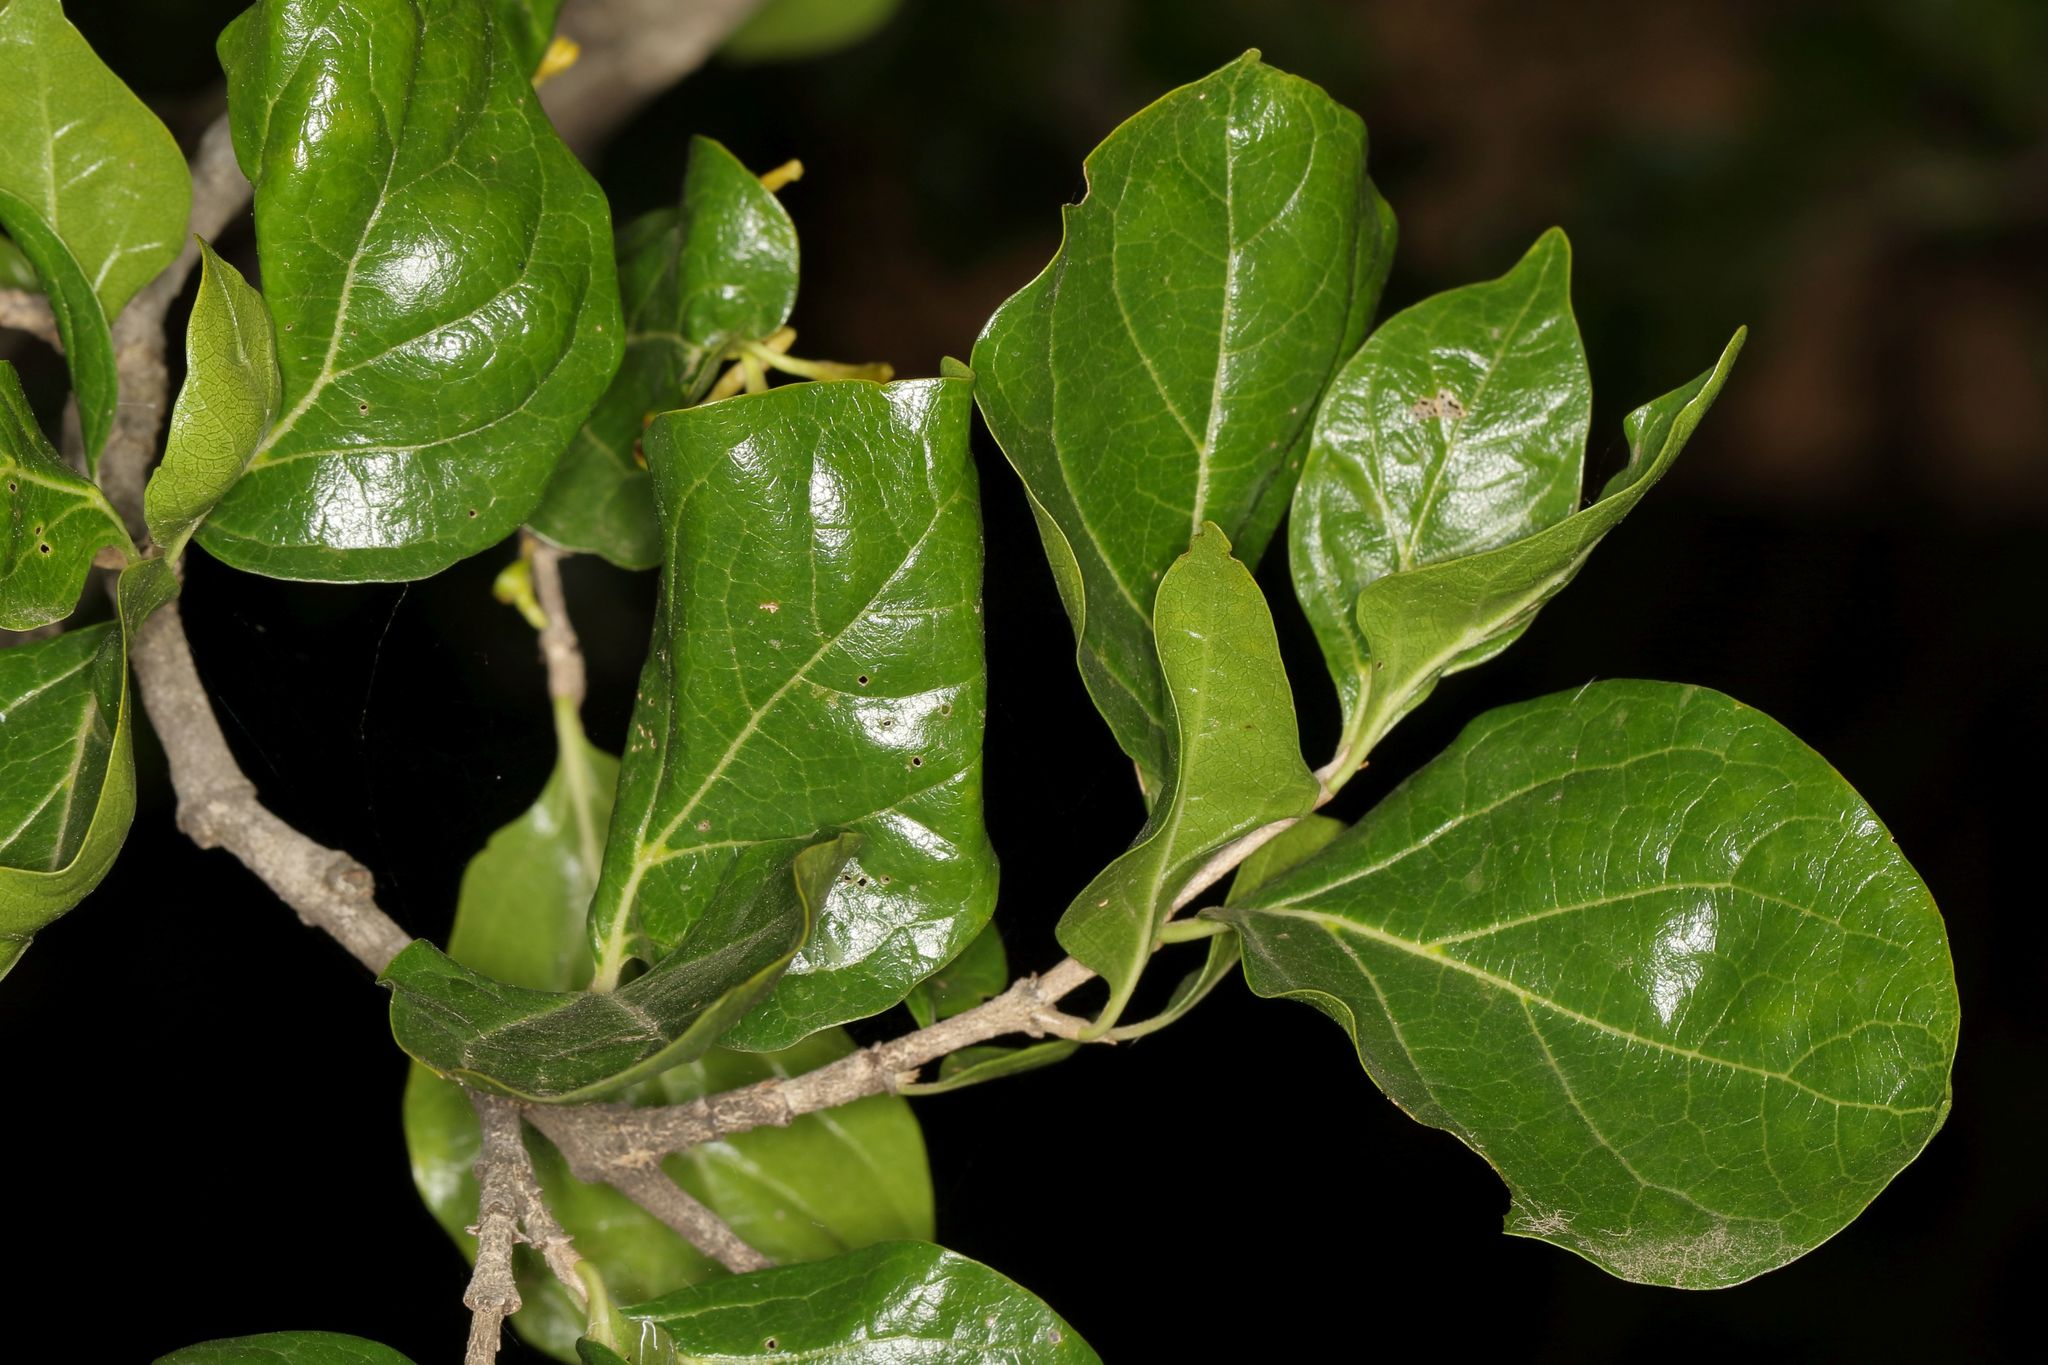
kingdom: Plantae
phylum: Tracheophyta
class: Magnoliopsida
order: Gentianales
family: Rubiaceae
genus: Afrocanthium
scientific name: Afrocanthium mundianum
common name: Rock-alder
